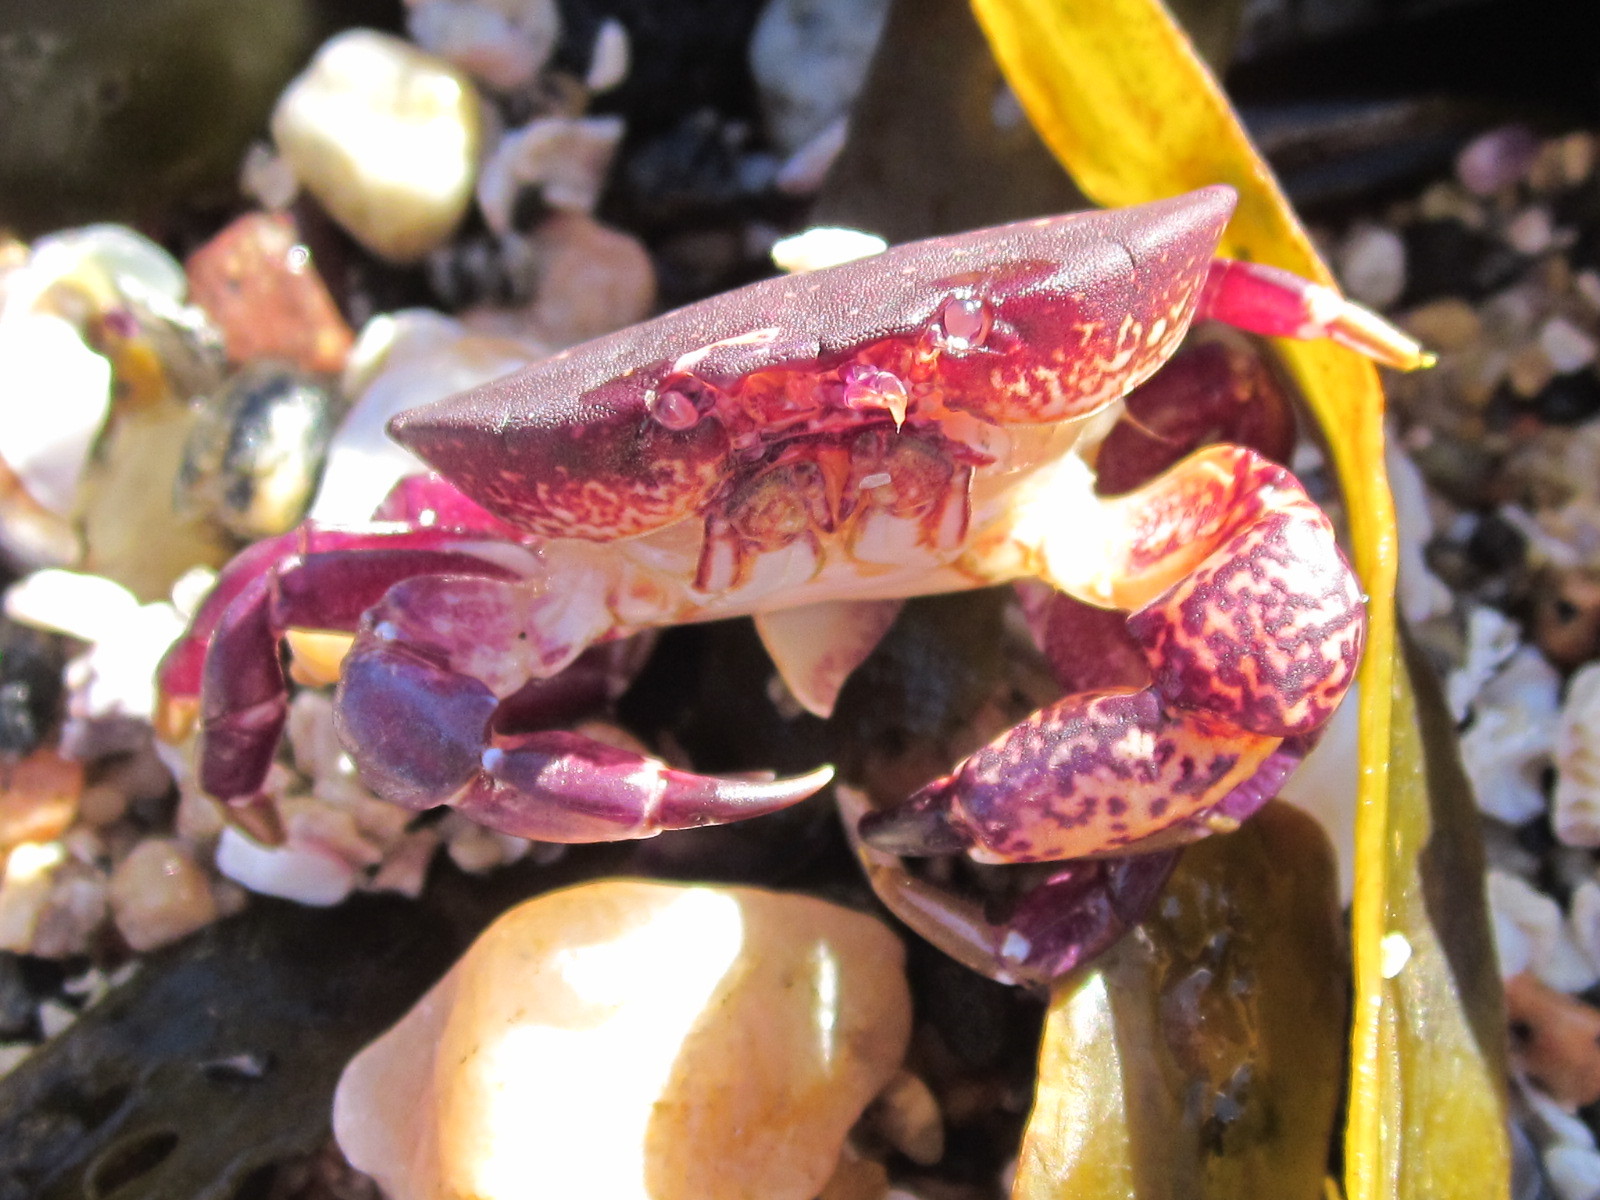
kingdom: Animalia
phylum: Arthropoda
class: Malacostraca
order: Decapoda
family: Platyxanthidae
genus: Homalaspis
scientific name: Homalaspis plana
